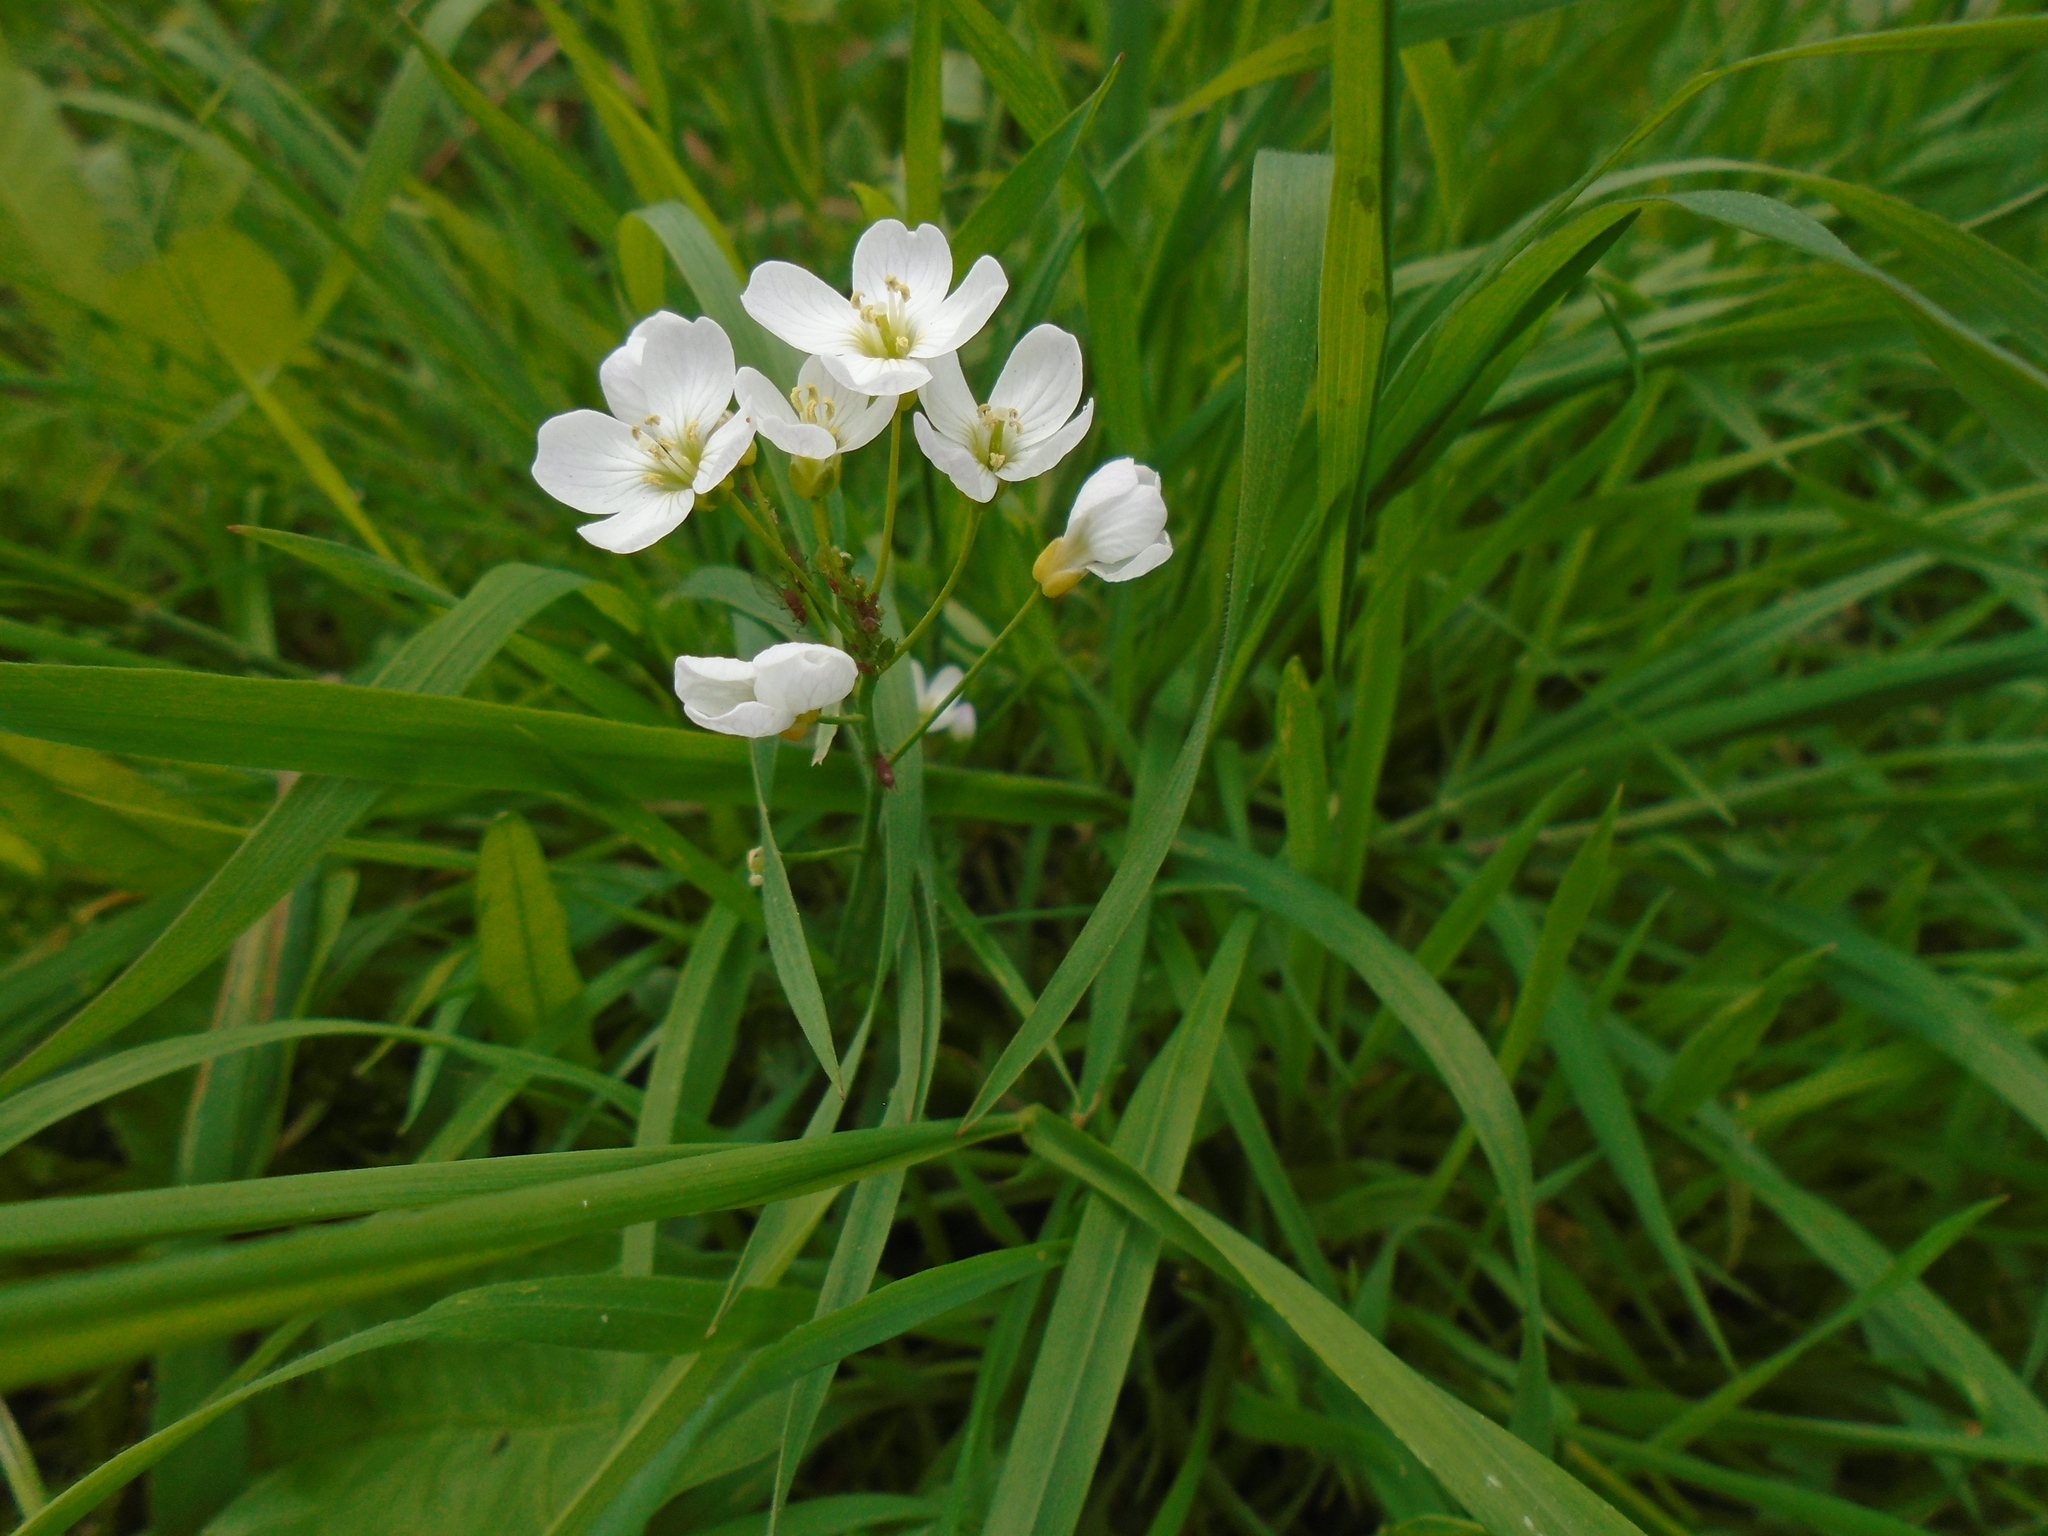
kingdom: Plantae
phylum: Tracheophyta
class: Magnoliopsida
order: Brassicales
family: Brassicaceae
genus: Cardamine
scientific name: Cardamine pratensis
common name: Cuckoo flower
